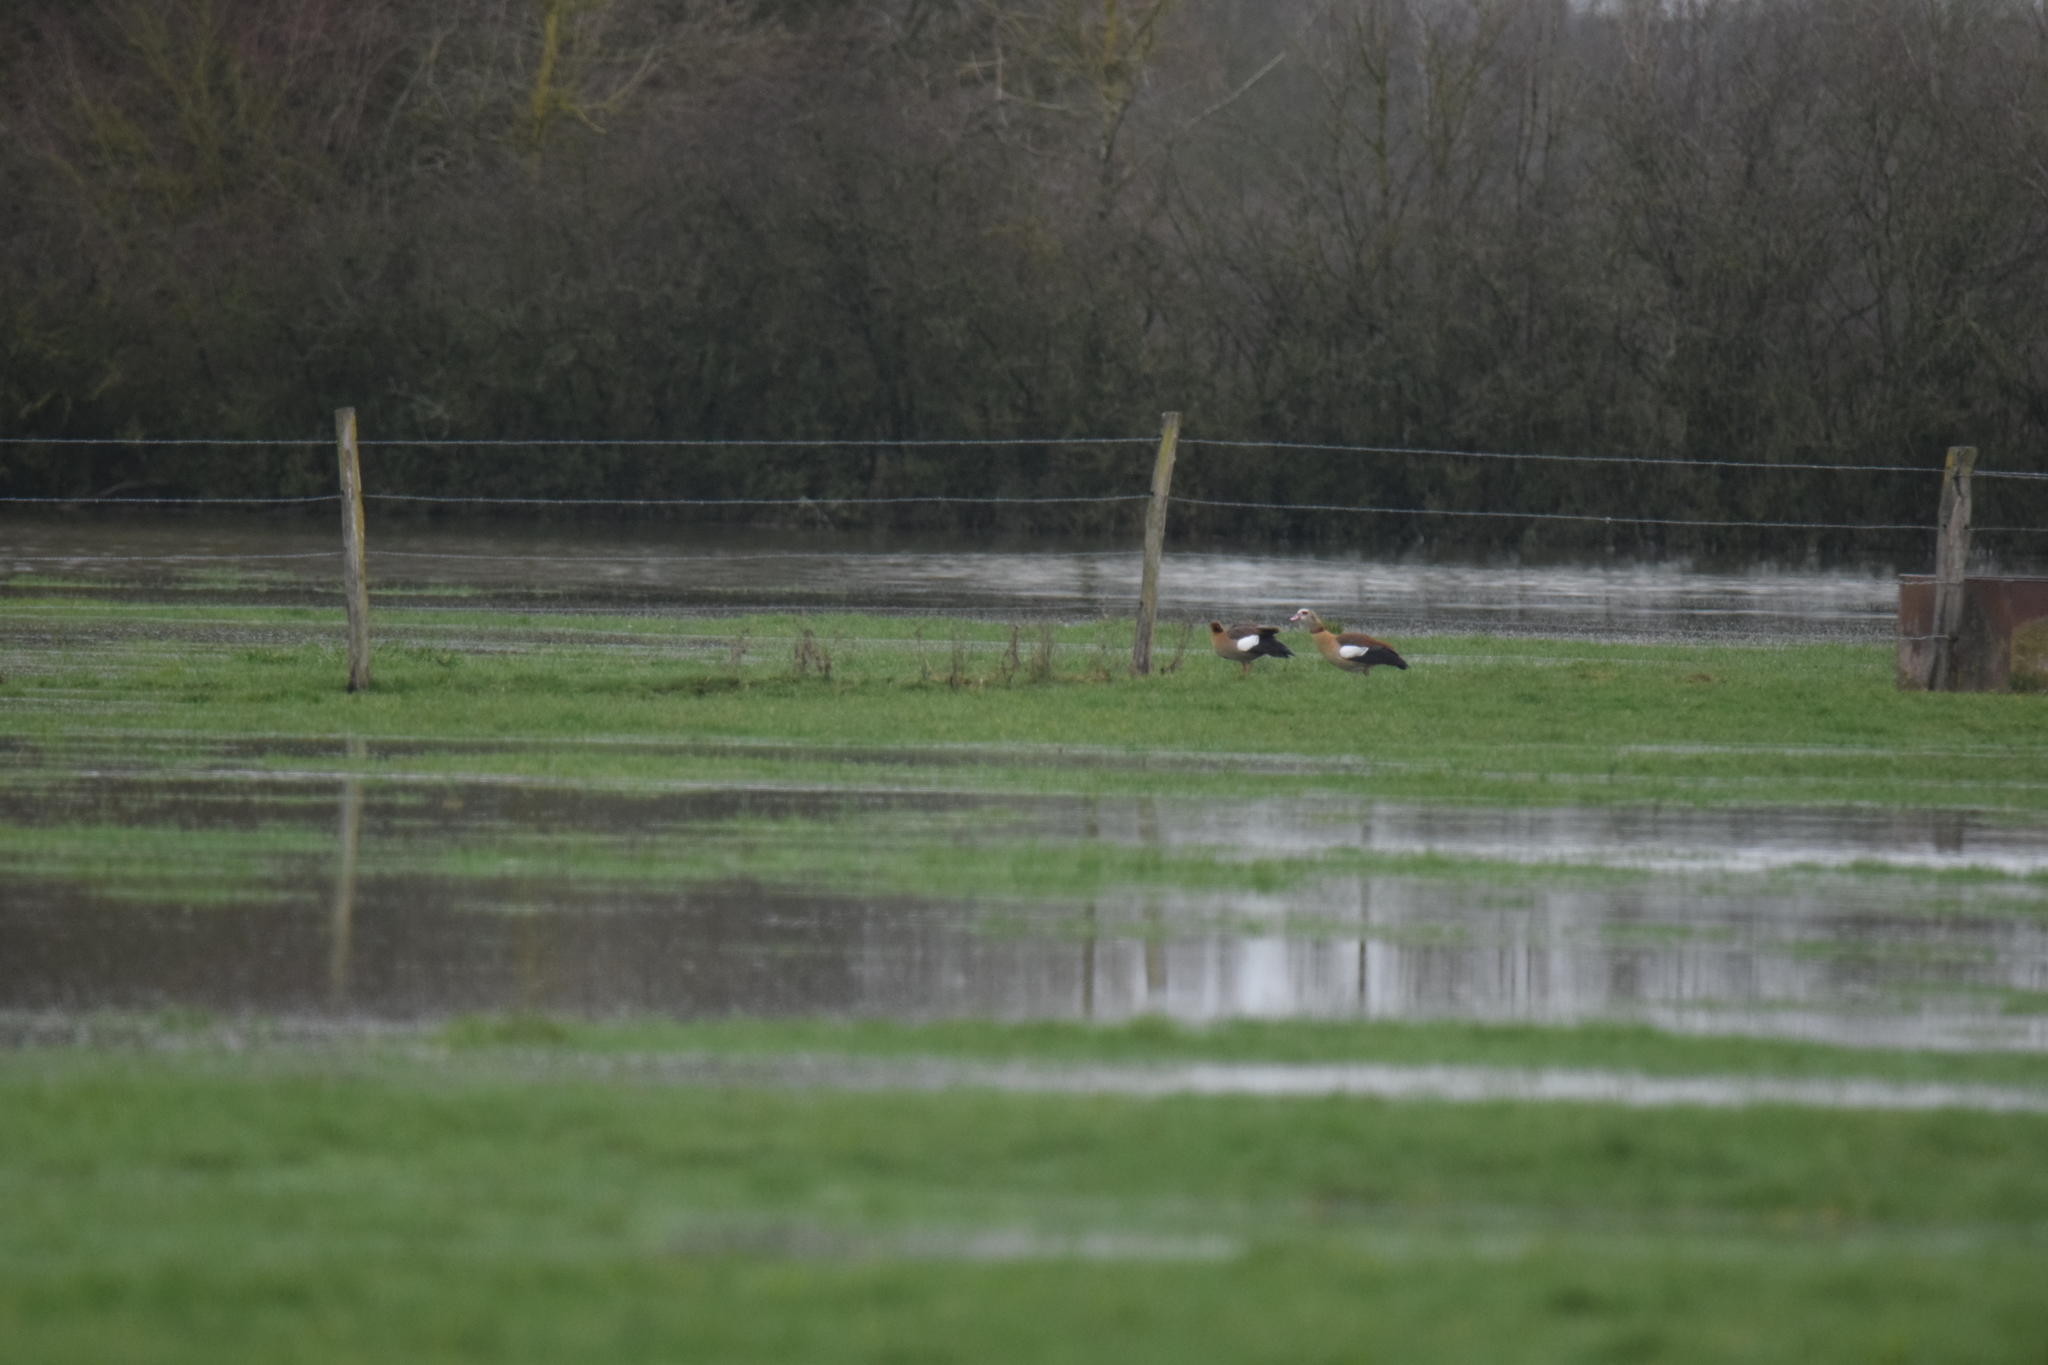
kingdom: Animalia
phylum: Chordata
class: Aves
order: Anseriformes
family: Anatidae
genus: Alopochen
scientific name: Alopochen aegyptiaca
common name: Egyptian goose
